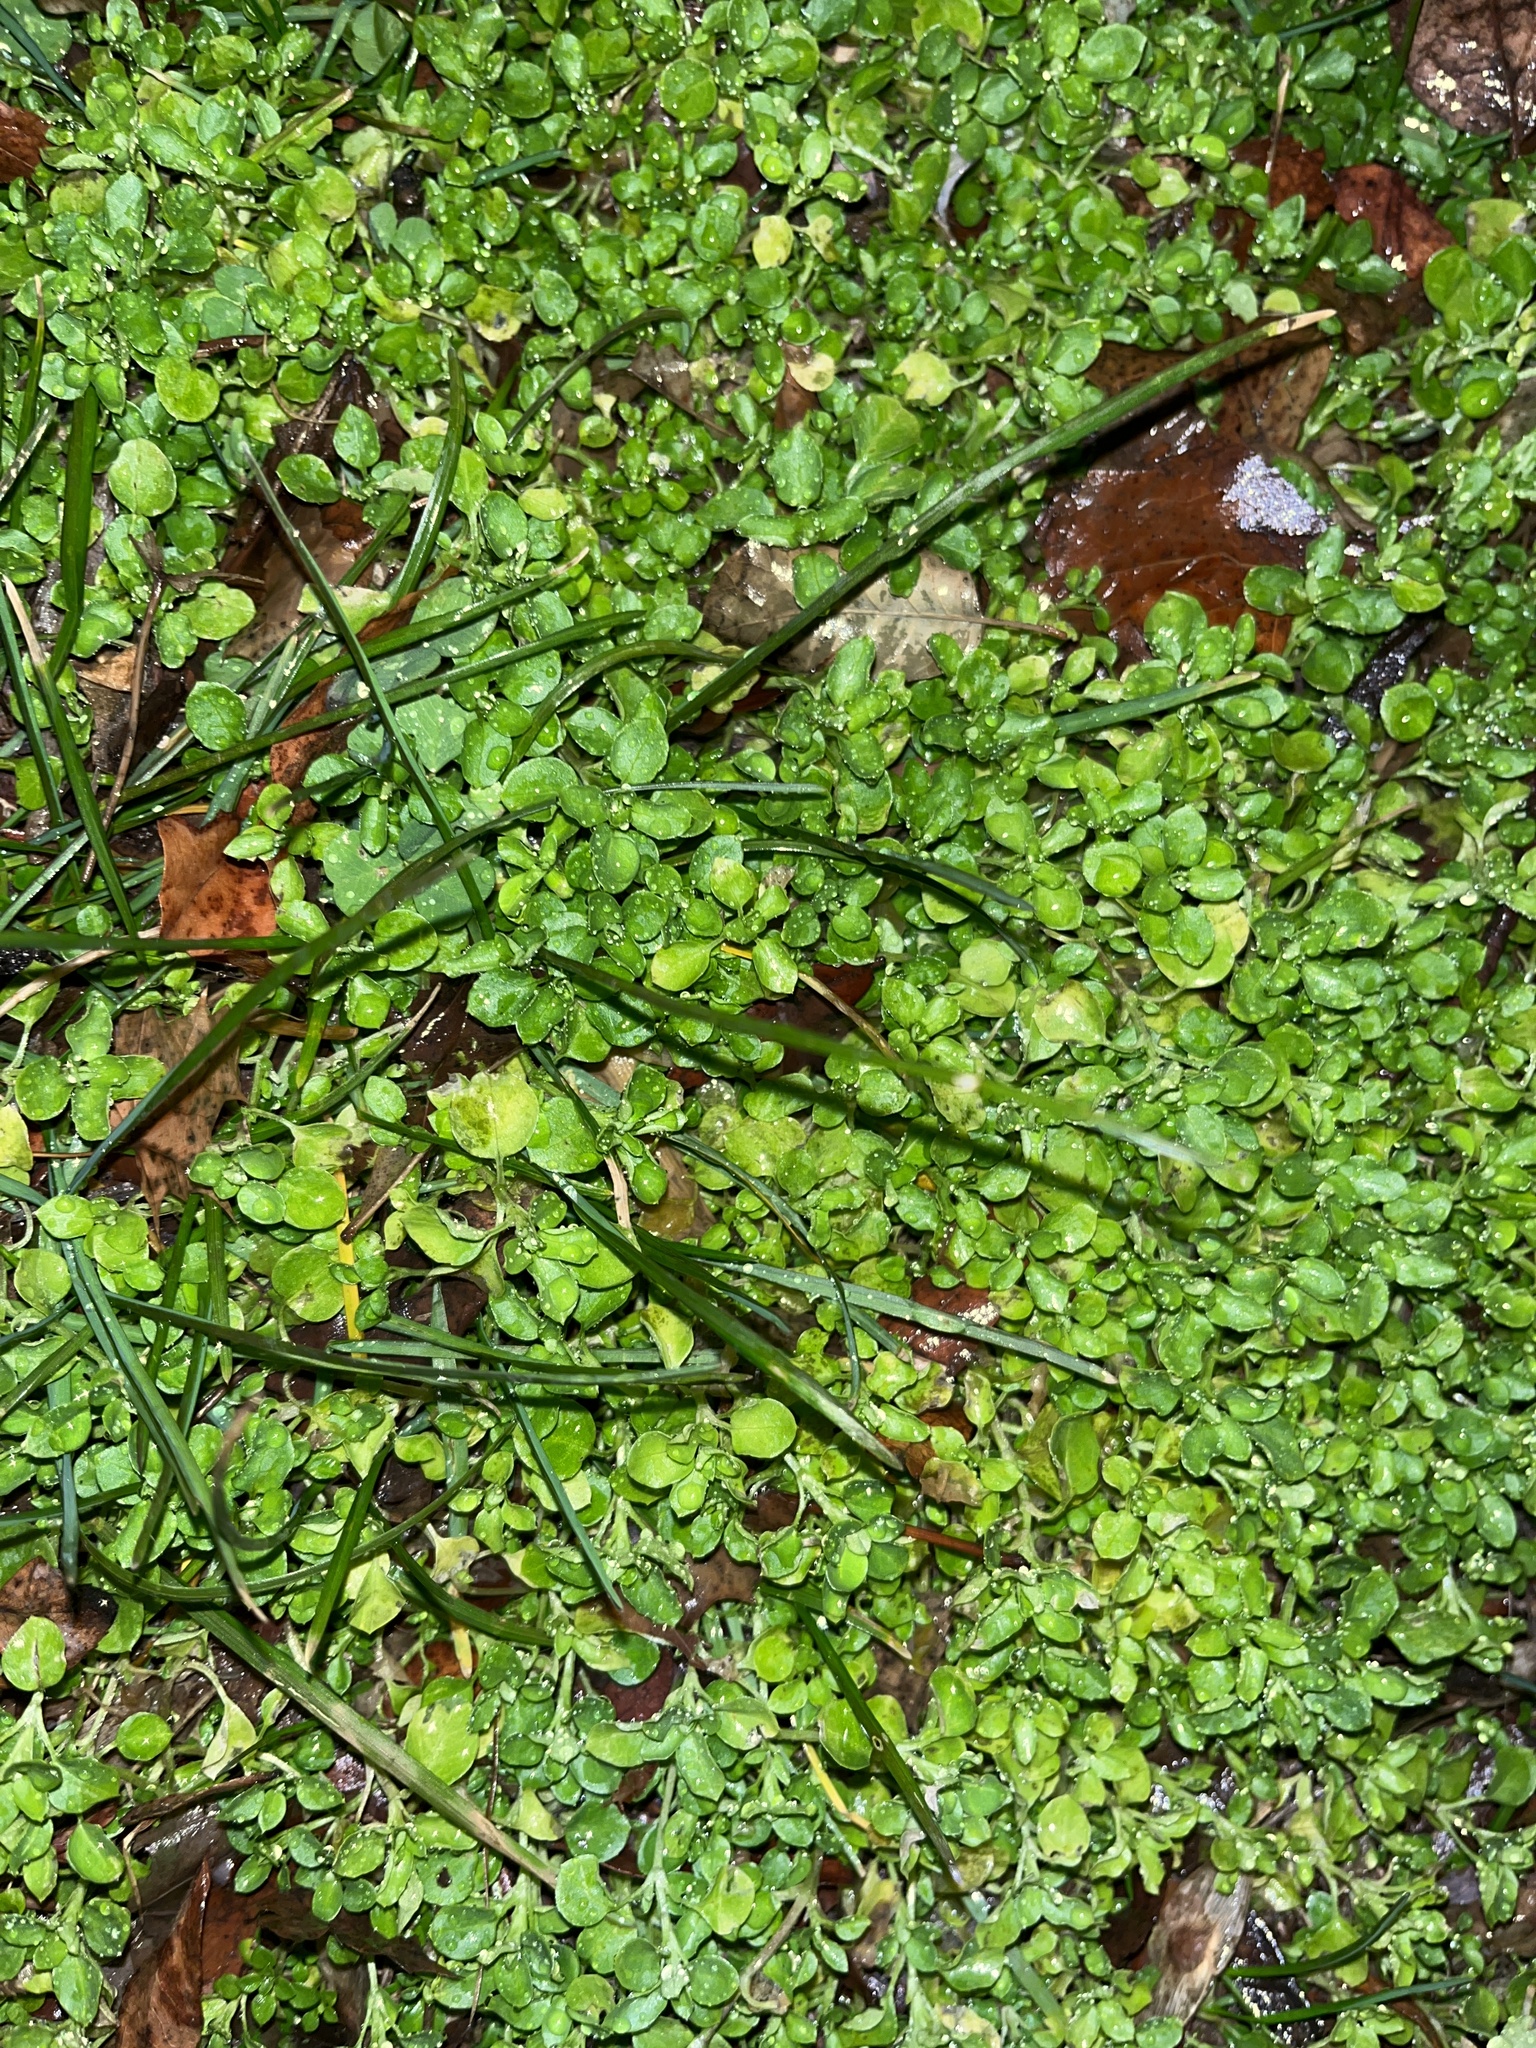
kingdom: Plantae
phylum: Tracheophyta
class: Magnoliopsida
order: Caryophyllales
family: Caryophyllaceae
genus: Stellaria
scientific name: Stellaria media
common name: Common chickweed
